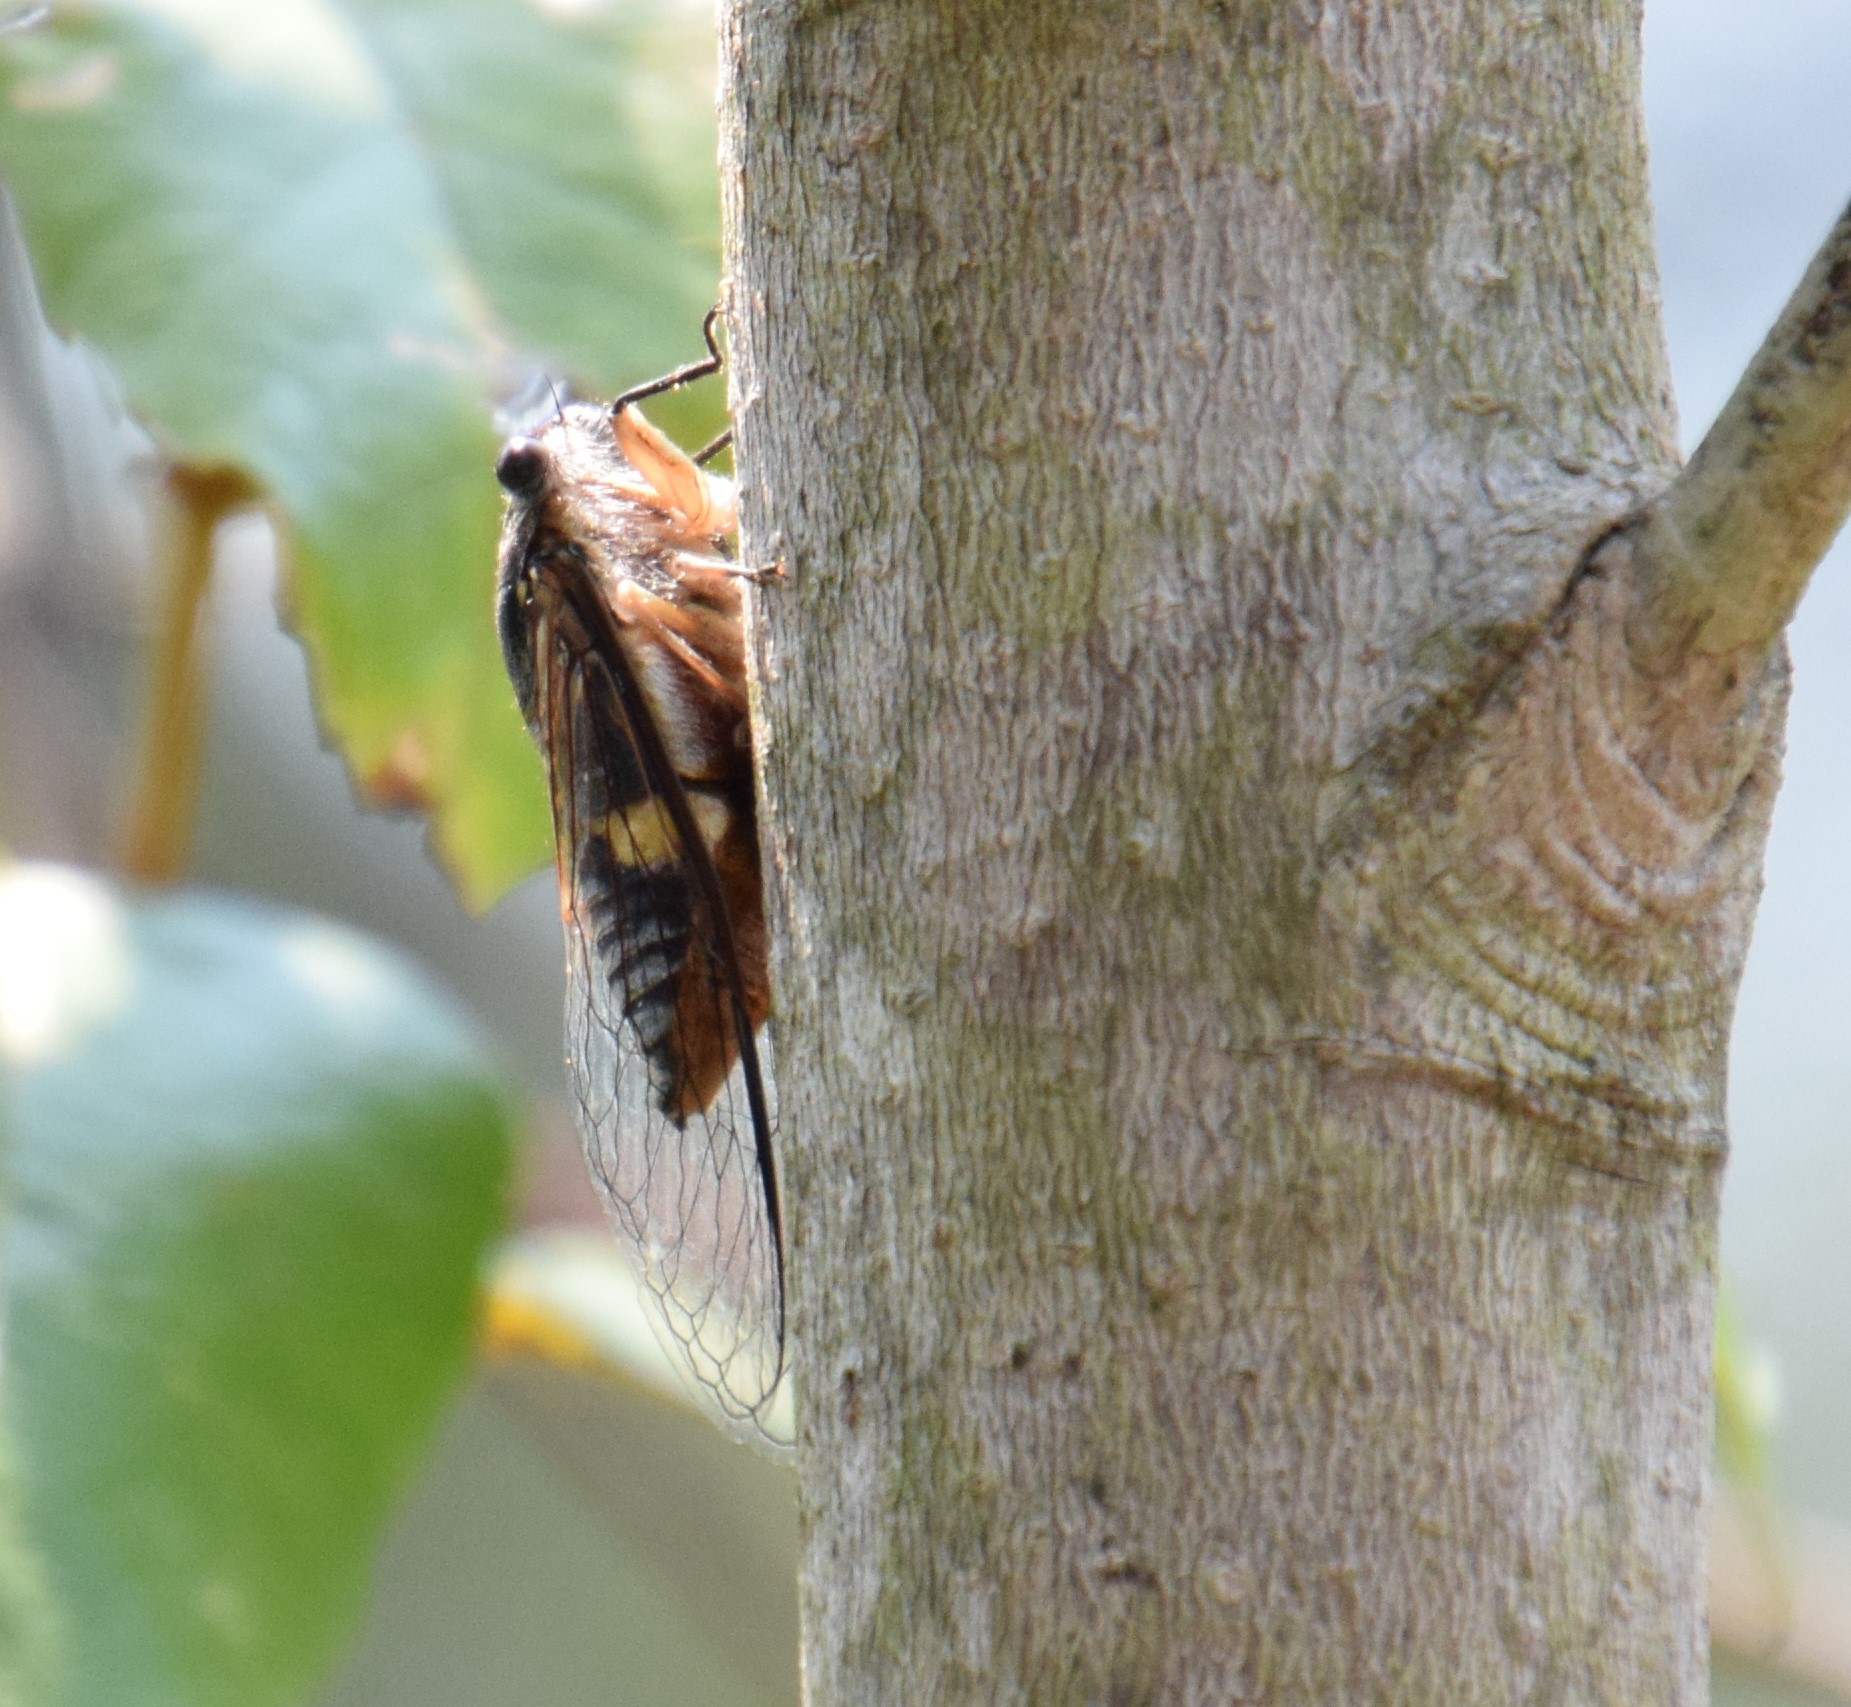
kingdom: Animalia
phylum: Arthropoda
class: Insecta
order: Hemiptera
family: Cicadidae
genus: Psaltoda
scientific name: Psaltoda harrisii
